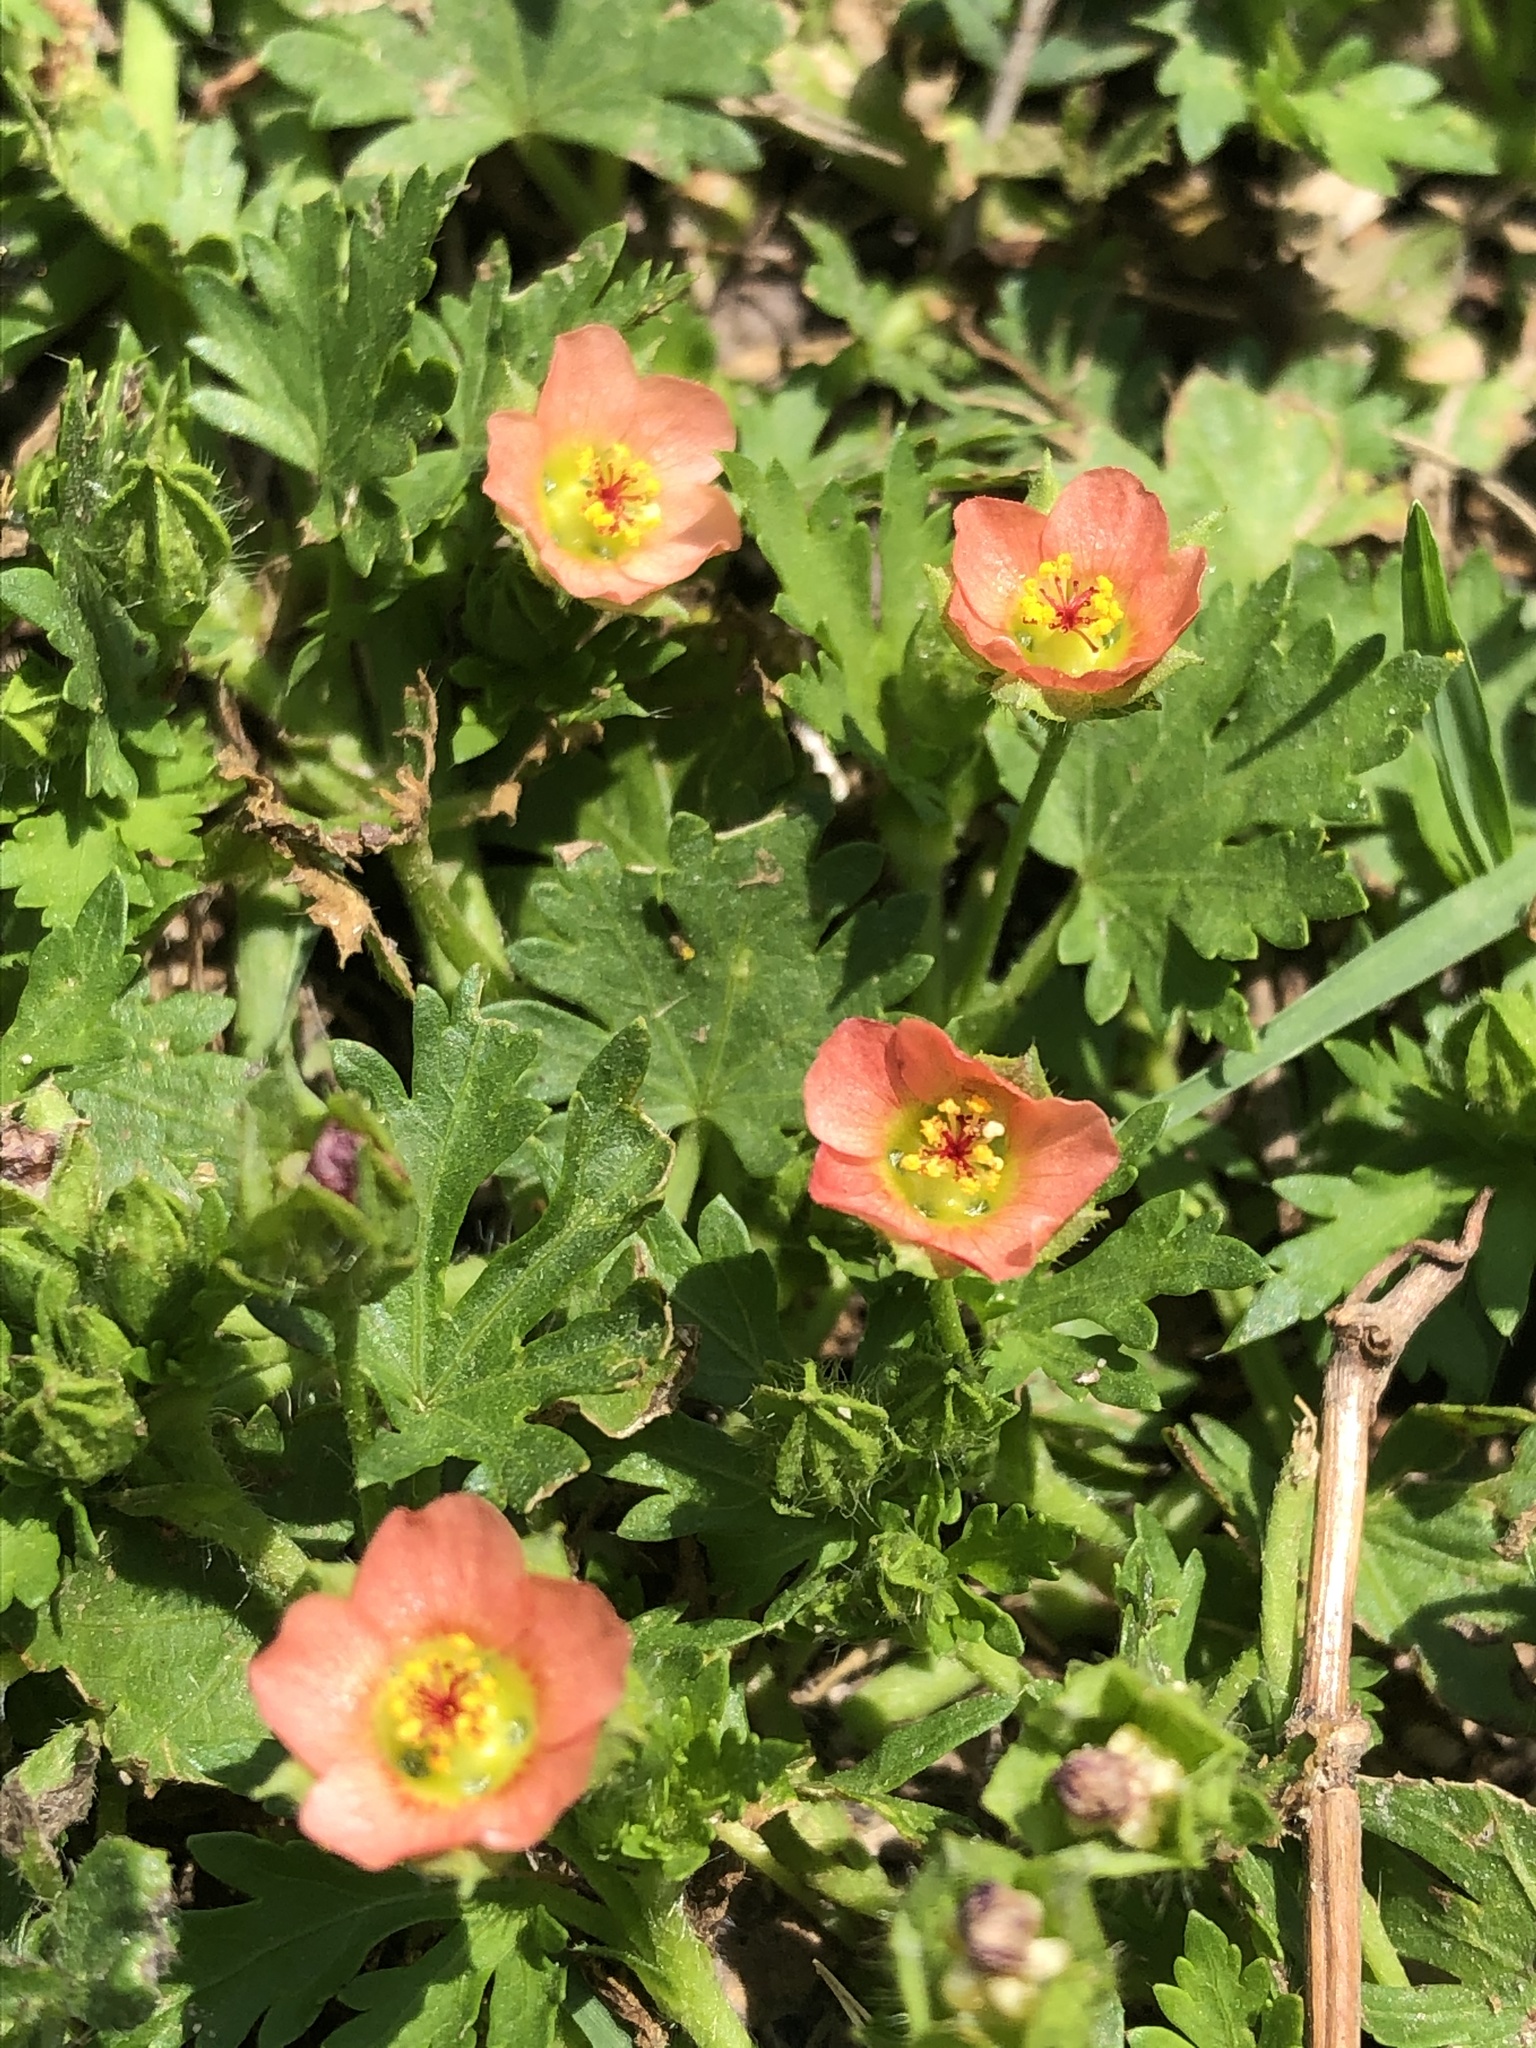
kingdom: Plantae
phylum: Tracheophyta
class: Magnoliopsida
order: Malvales
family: Malvaceae
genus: Modiola
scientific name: Modiola caroliniana
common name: Carolina bristlemallow
